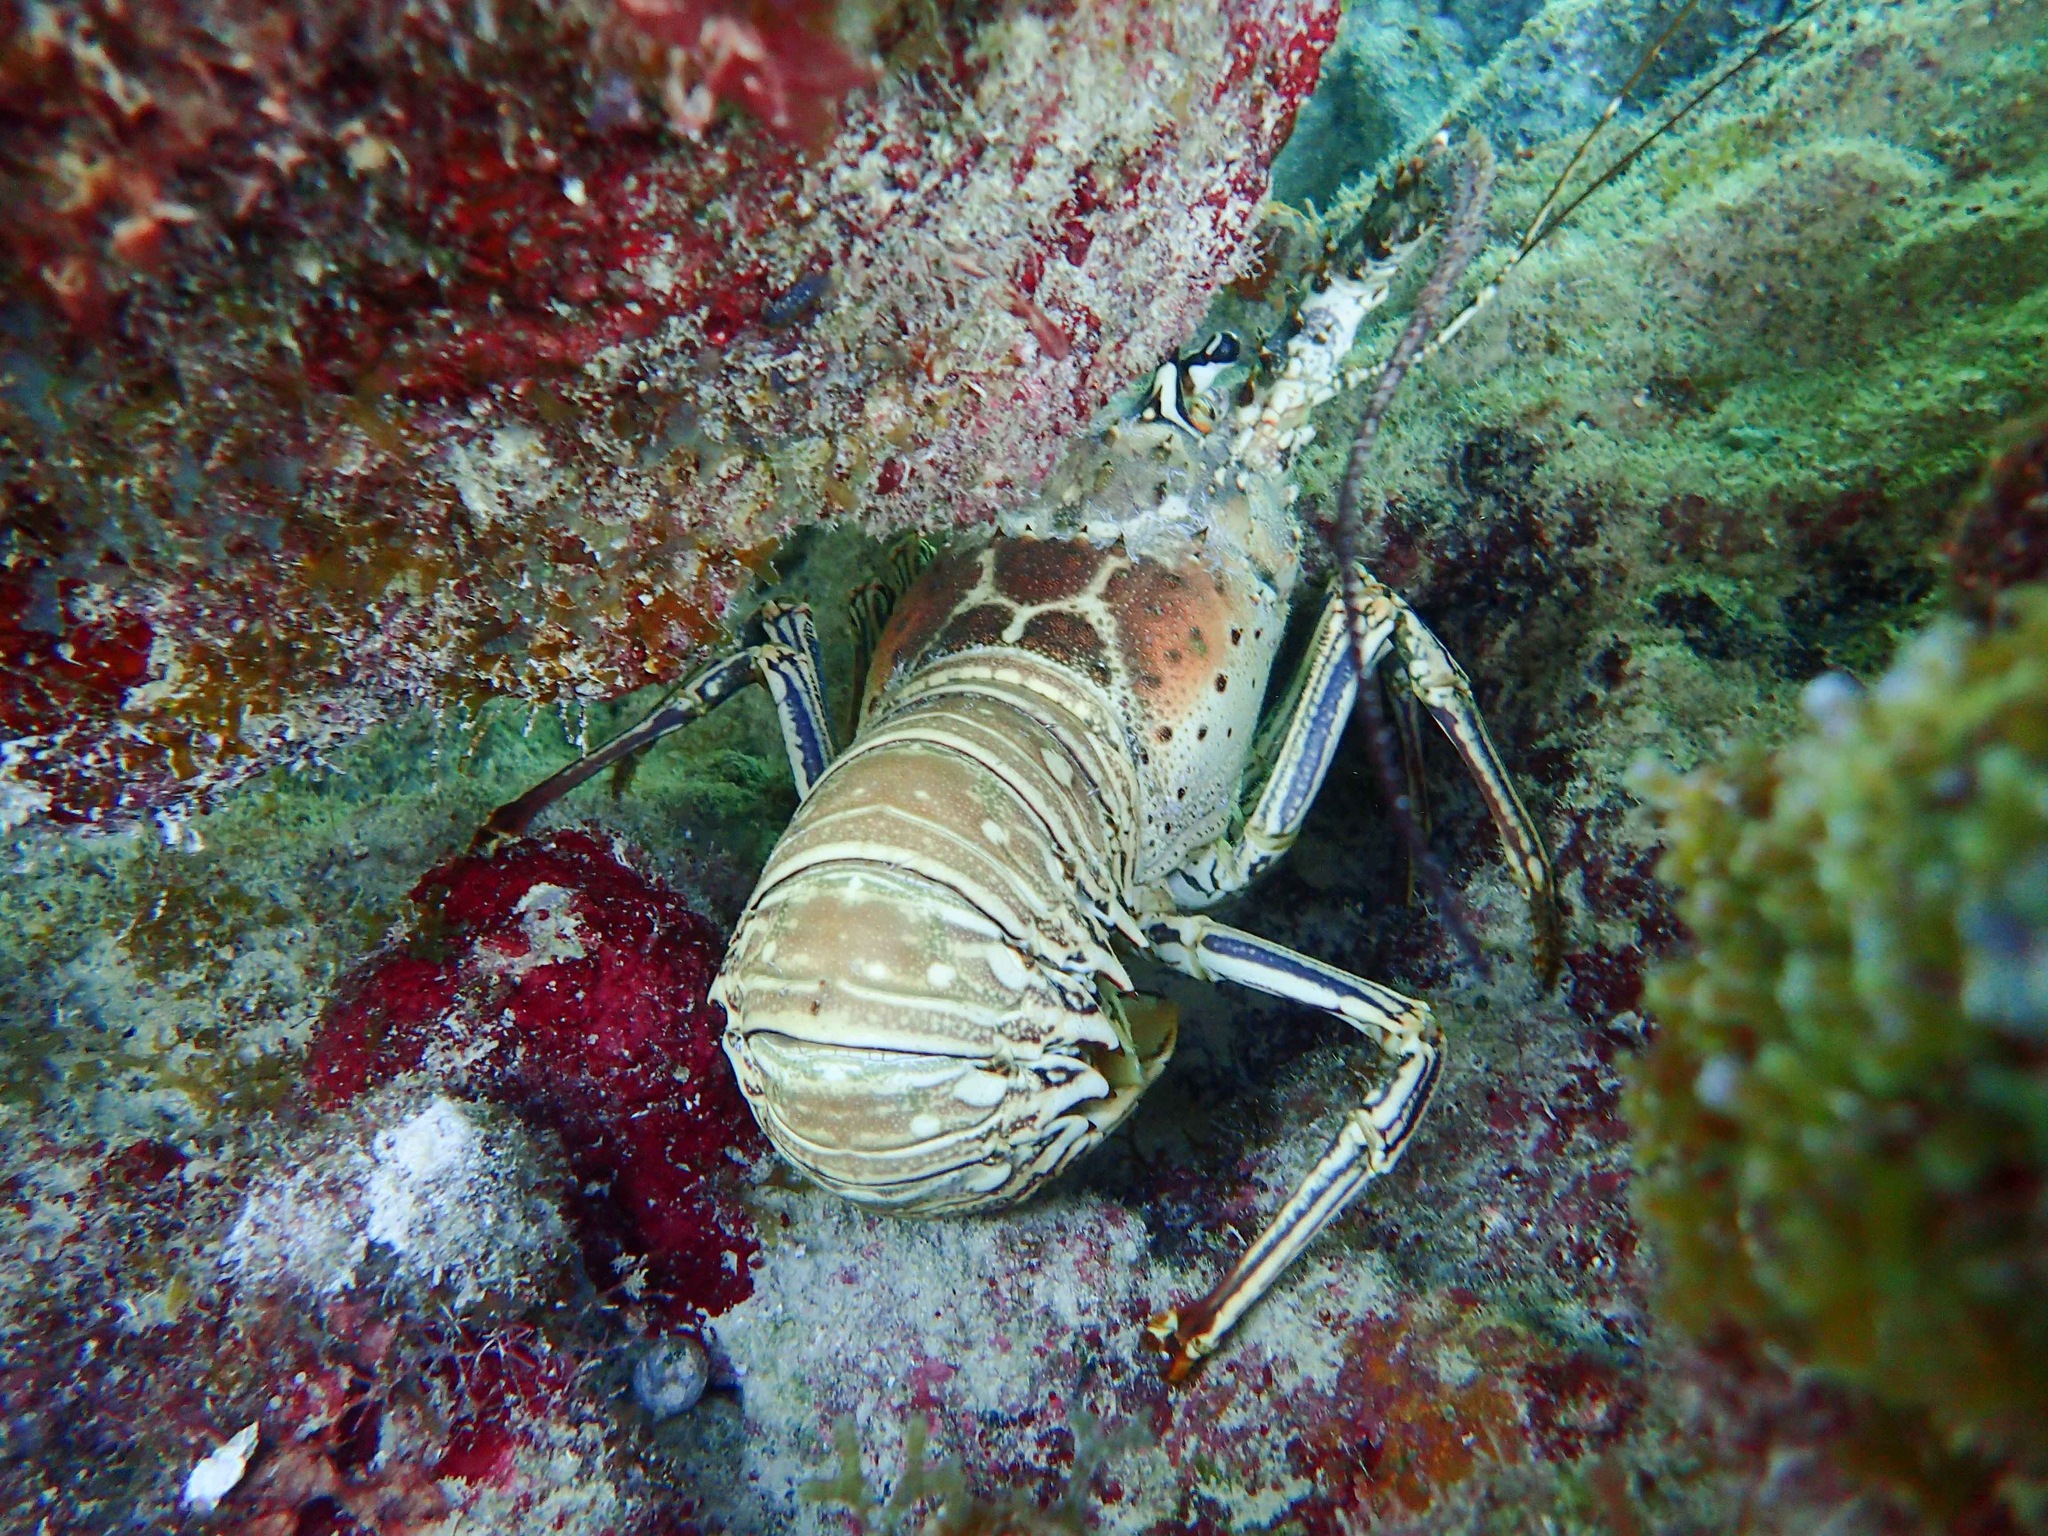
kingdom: Animalia
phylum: Arthropoda
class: Malacostraca
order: Decapoda
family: Palinuridae
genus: Panulirus
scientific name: Panulirus argus
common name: Caribbean spiny lobster
